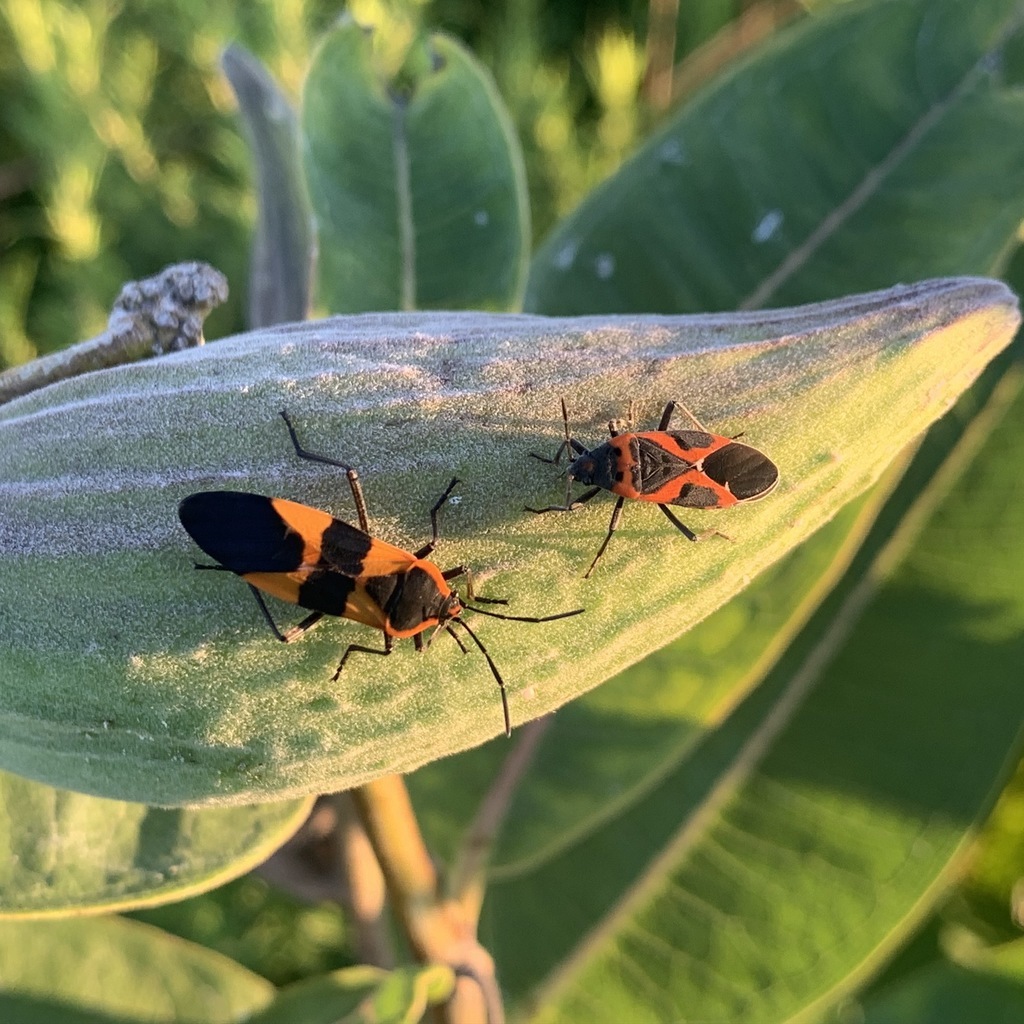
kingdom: Animalia
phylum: Arthropoda
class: Insecta
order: Hemiptera
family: Lygaeidae
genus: Lygaeus
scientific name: Lygaeus kalmii
